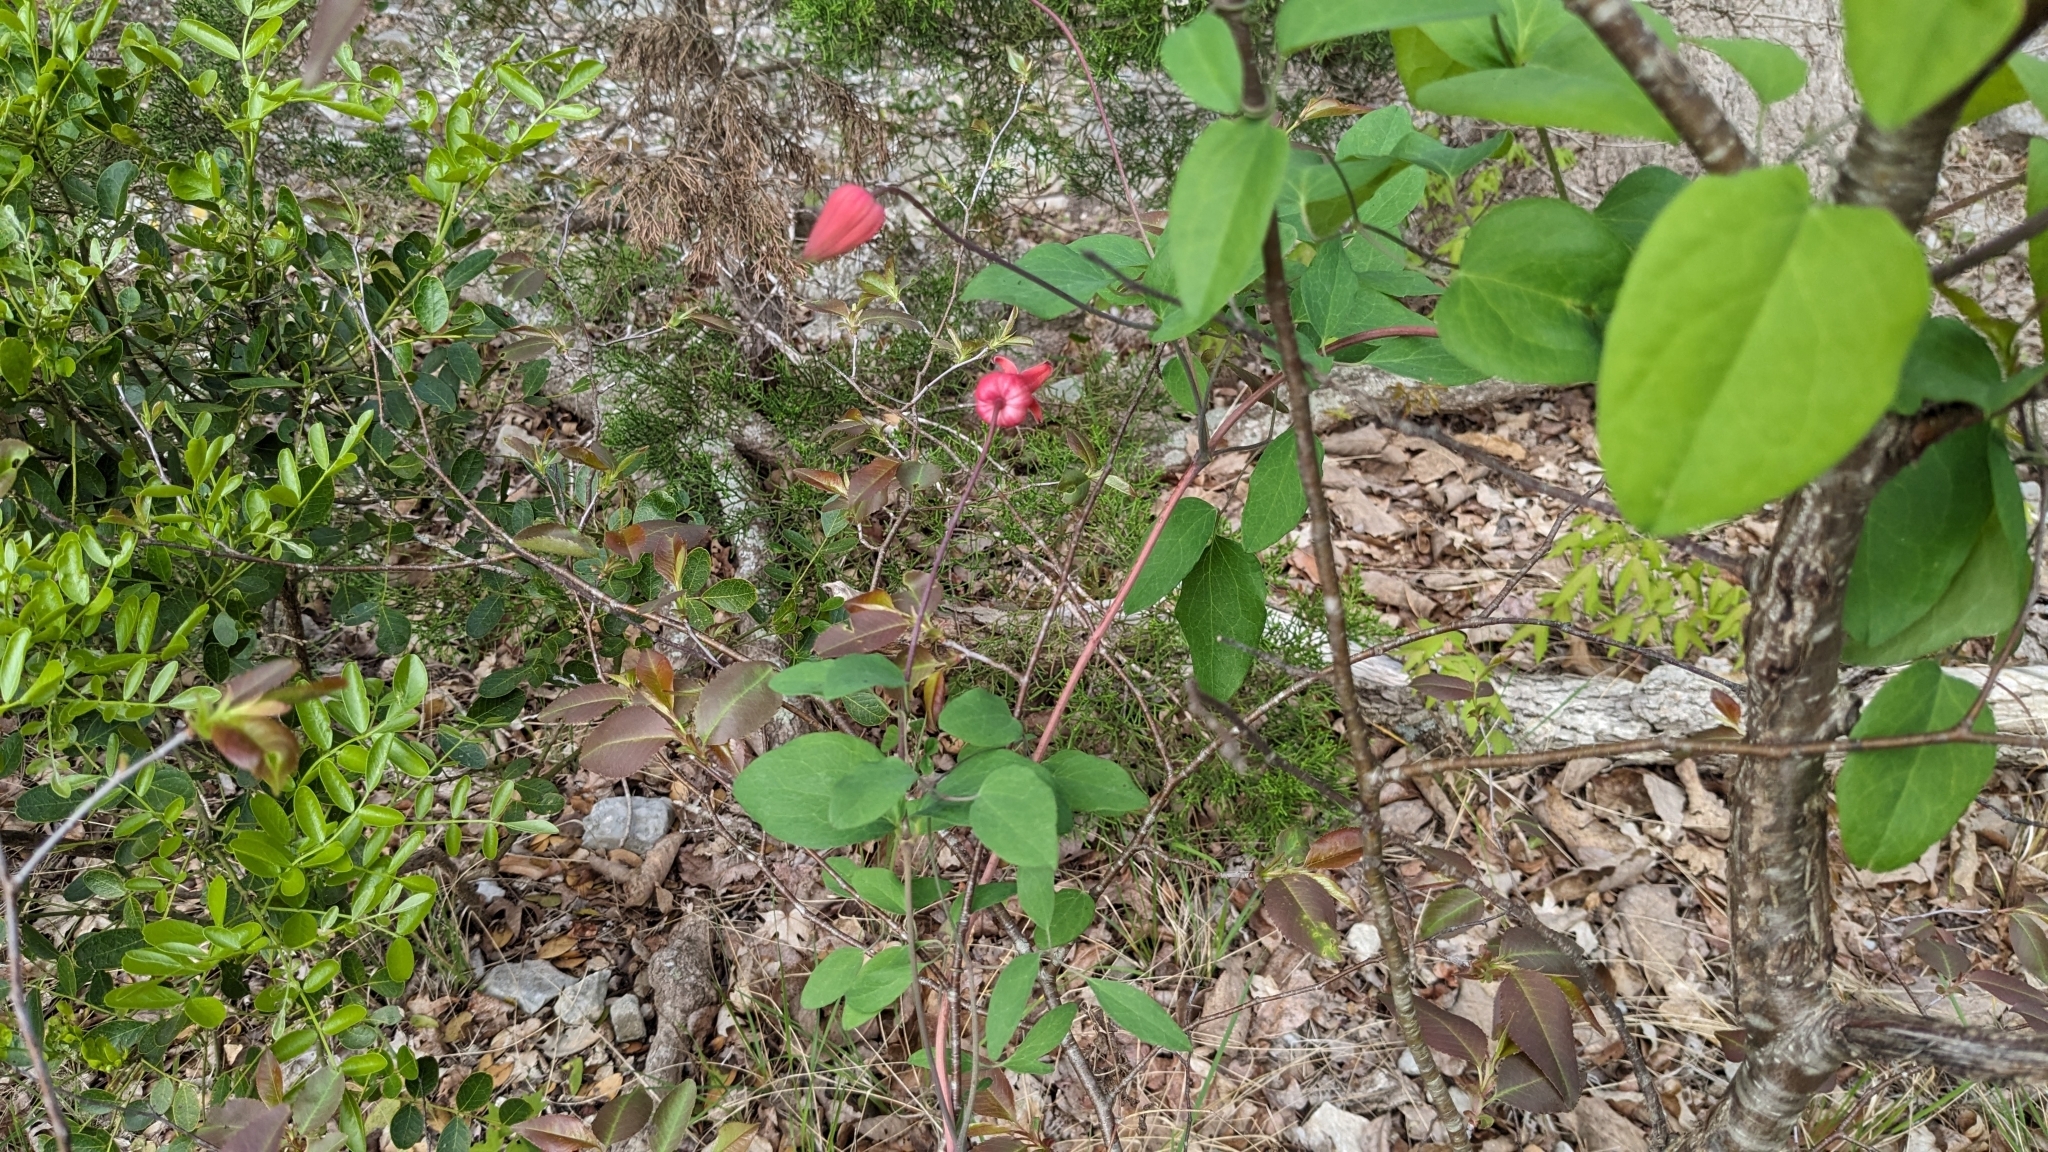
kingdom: Plantae
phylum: Tracheophyta
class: Magnoliopsida
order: Ranunculales
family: Ranunculaceae
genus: Clematis
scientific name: Clematis texensis
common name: Crimson clematis
